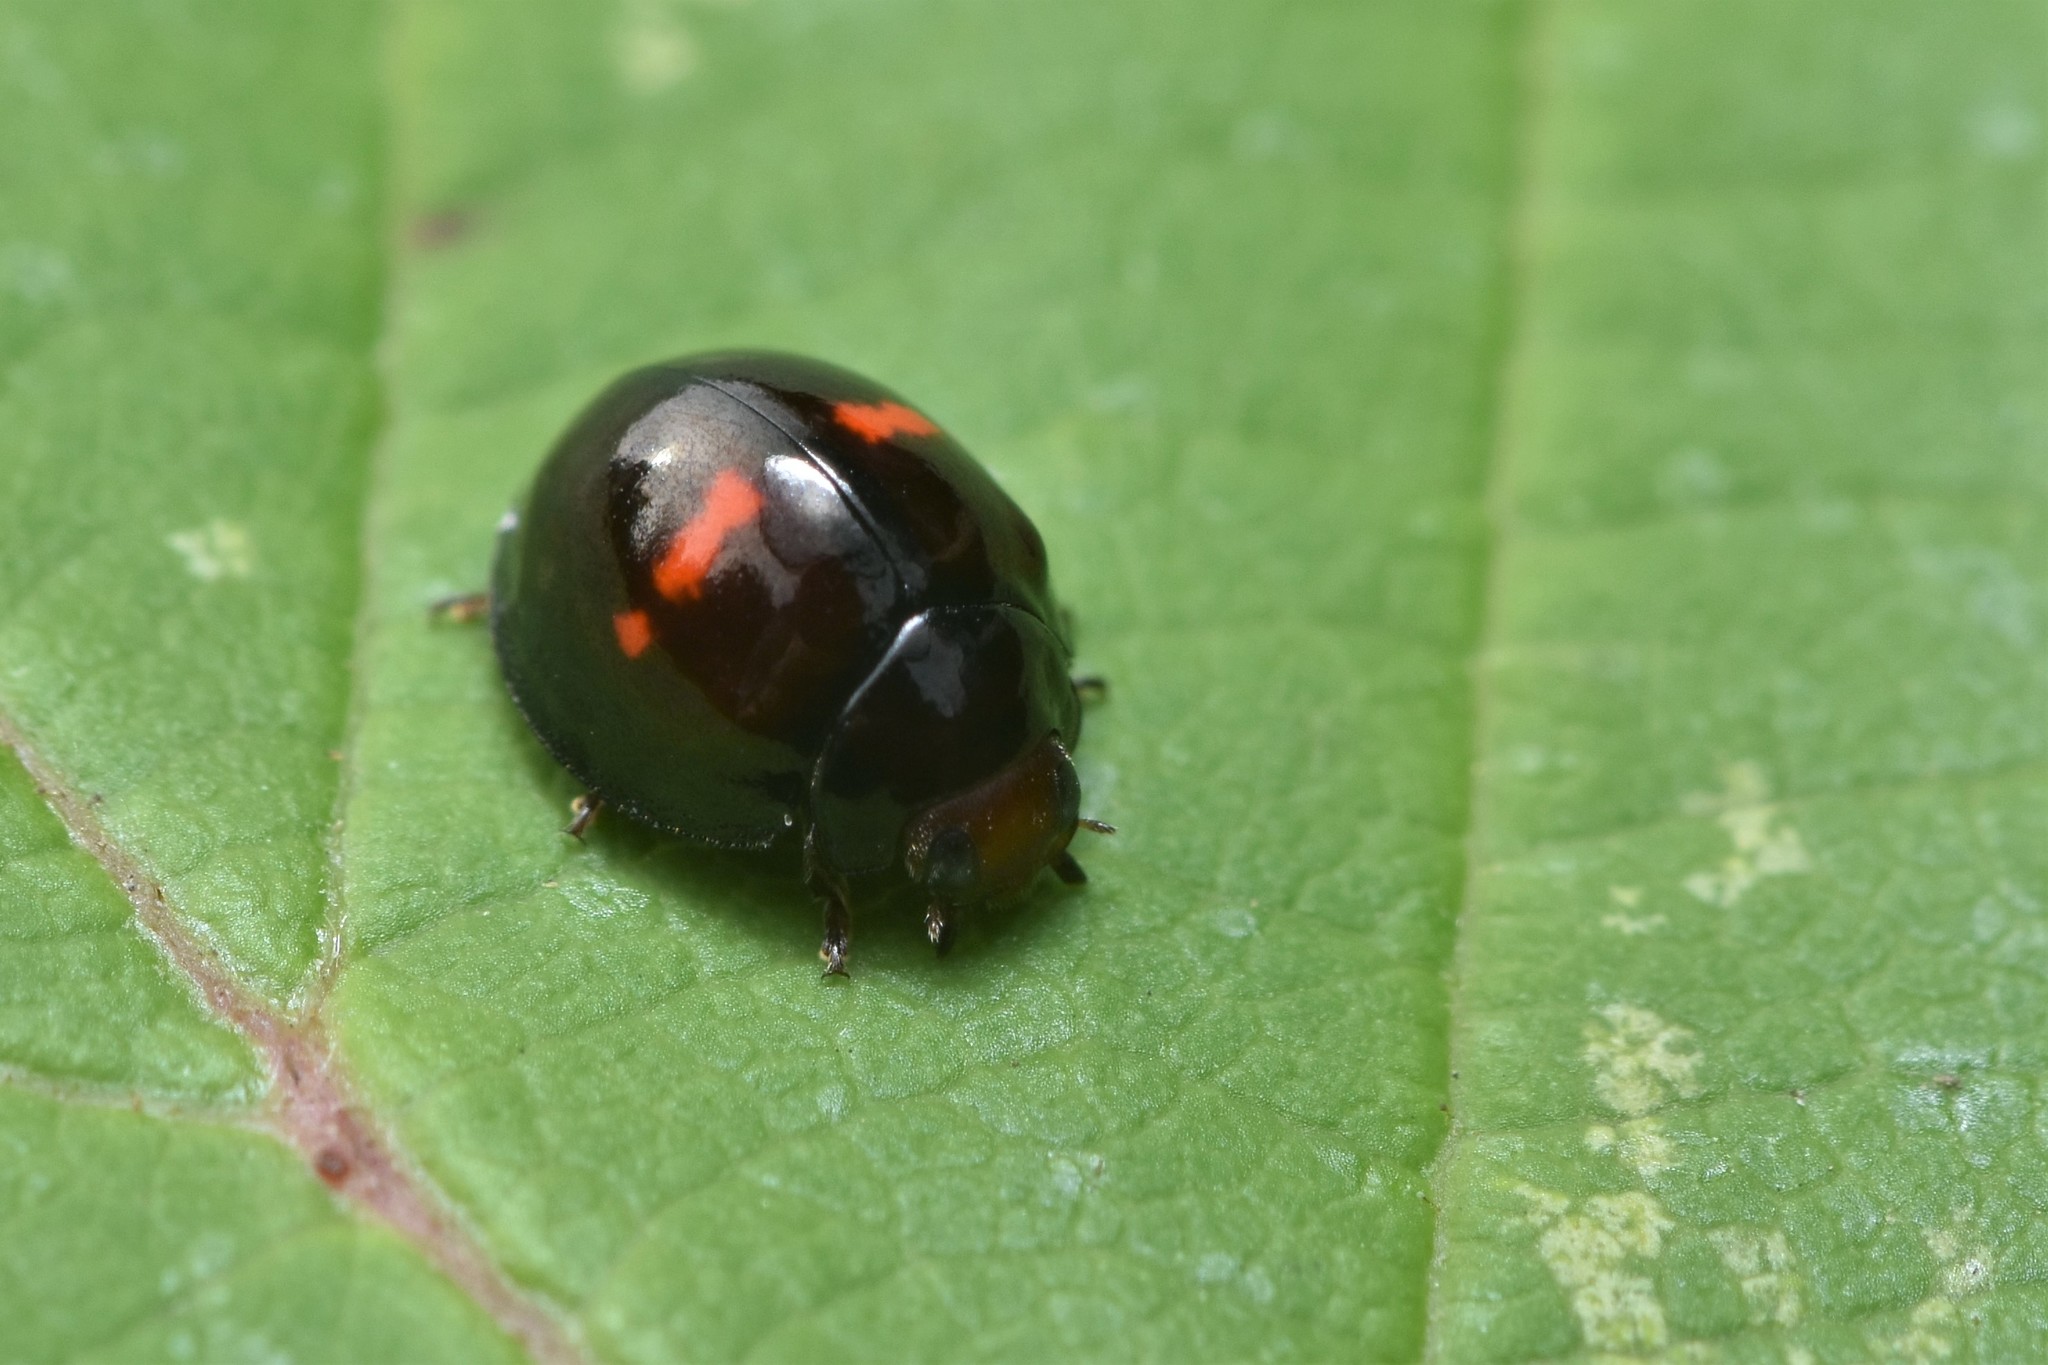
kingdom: Animalia
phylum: Arthropoda
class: Insecta
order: Coleoptera
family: Coccinellidae
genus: Chilocorus
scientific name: Chilocorus bipustulatus
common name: Heather ladybird
